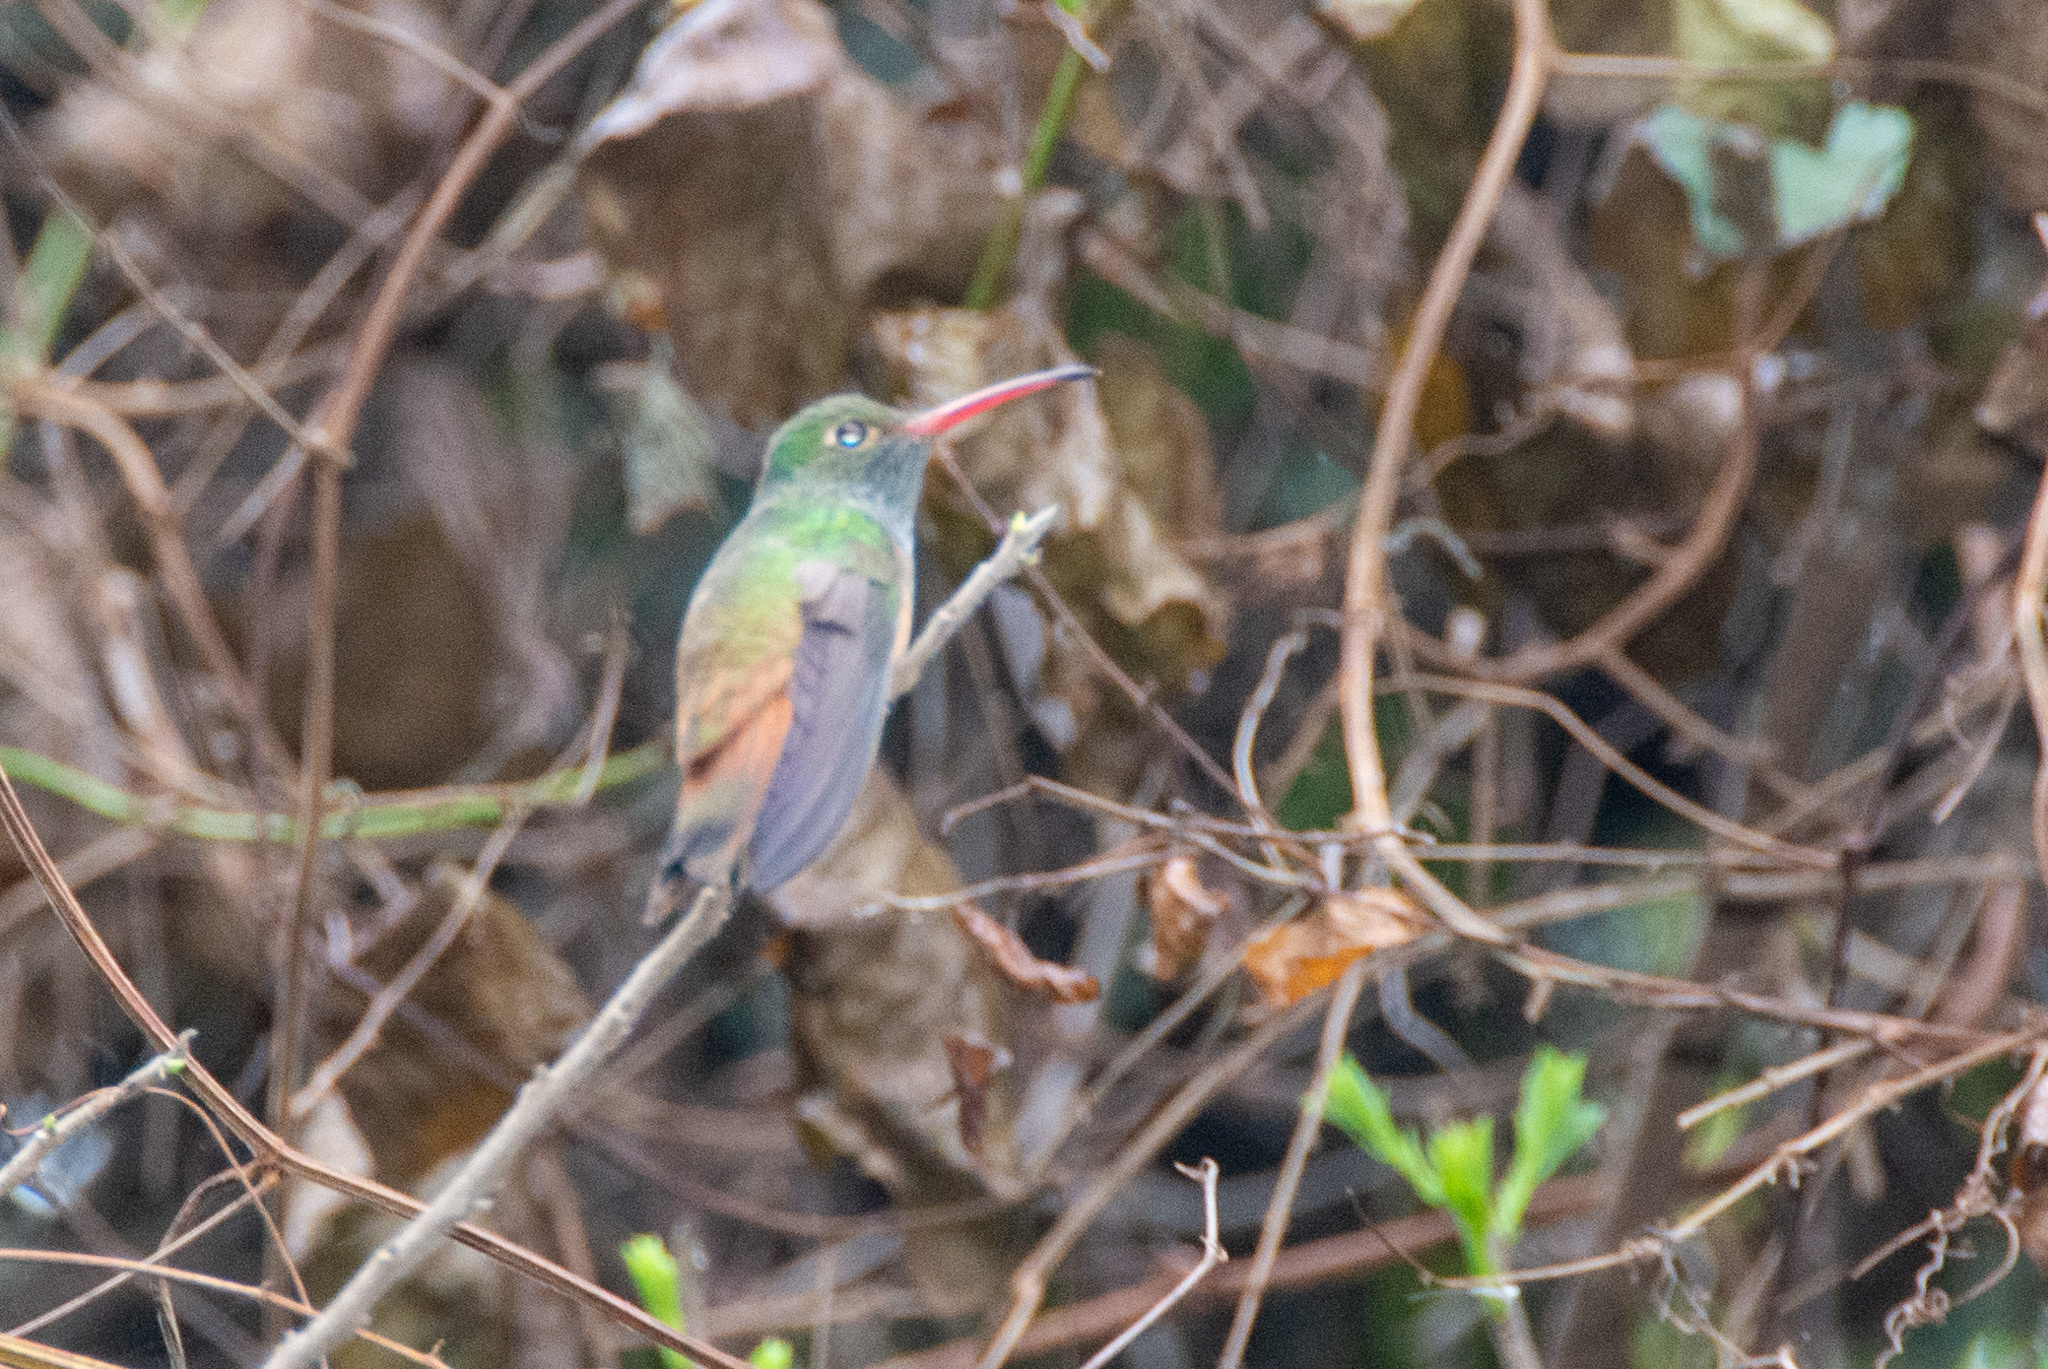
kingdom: Animalia
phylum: Chordata
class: Aves
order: Apodiformes
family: Trochilidae
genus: Amazilia
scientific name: Amazilia yucatanensis
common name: Buff-bellied hummingbird
